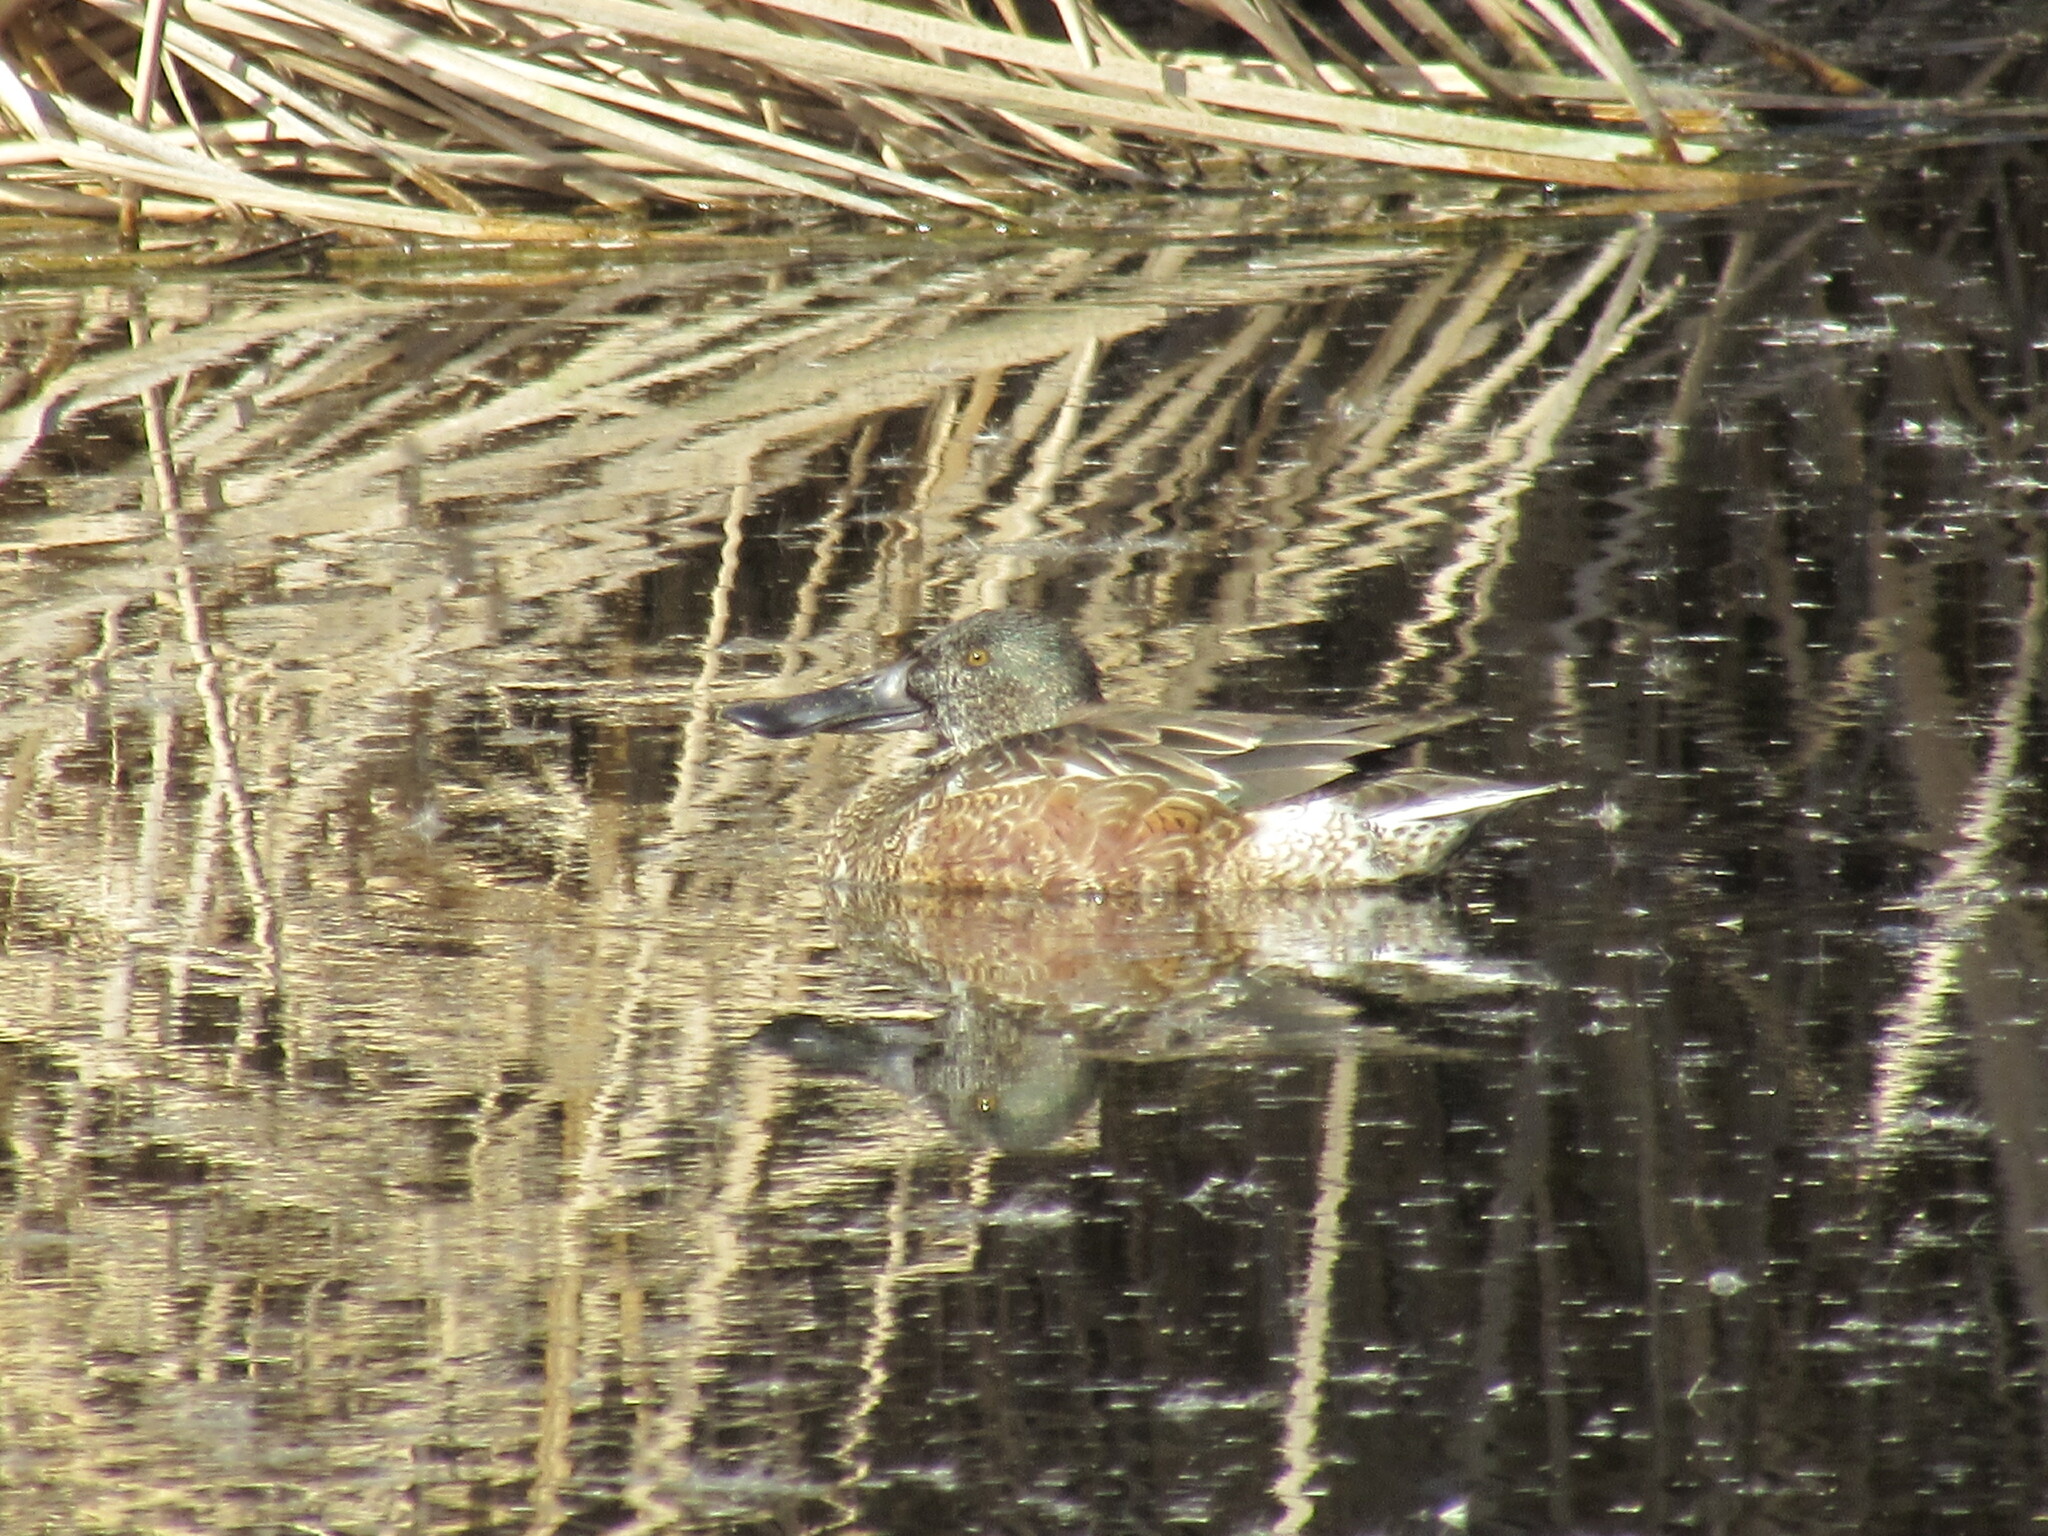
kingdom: Animalia
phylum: Chordata
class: Aves
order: Anseriformes
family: Anatidae
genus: Spatula
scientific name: Spatula clypeata
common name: Northern shoveler
